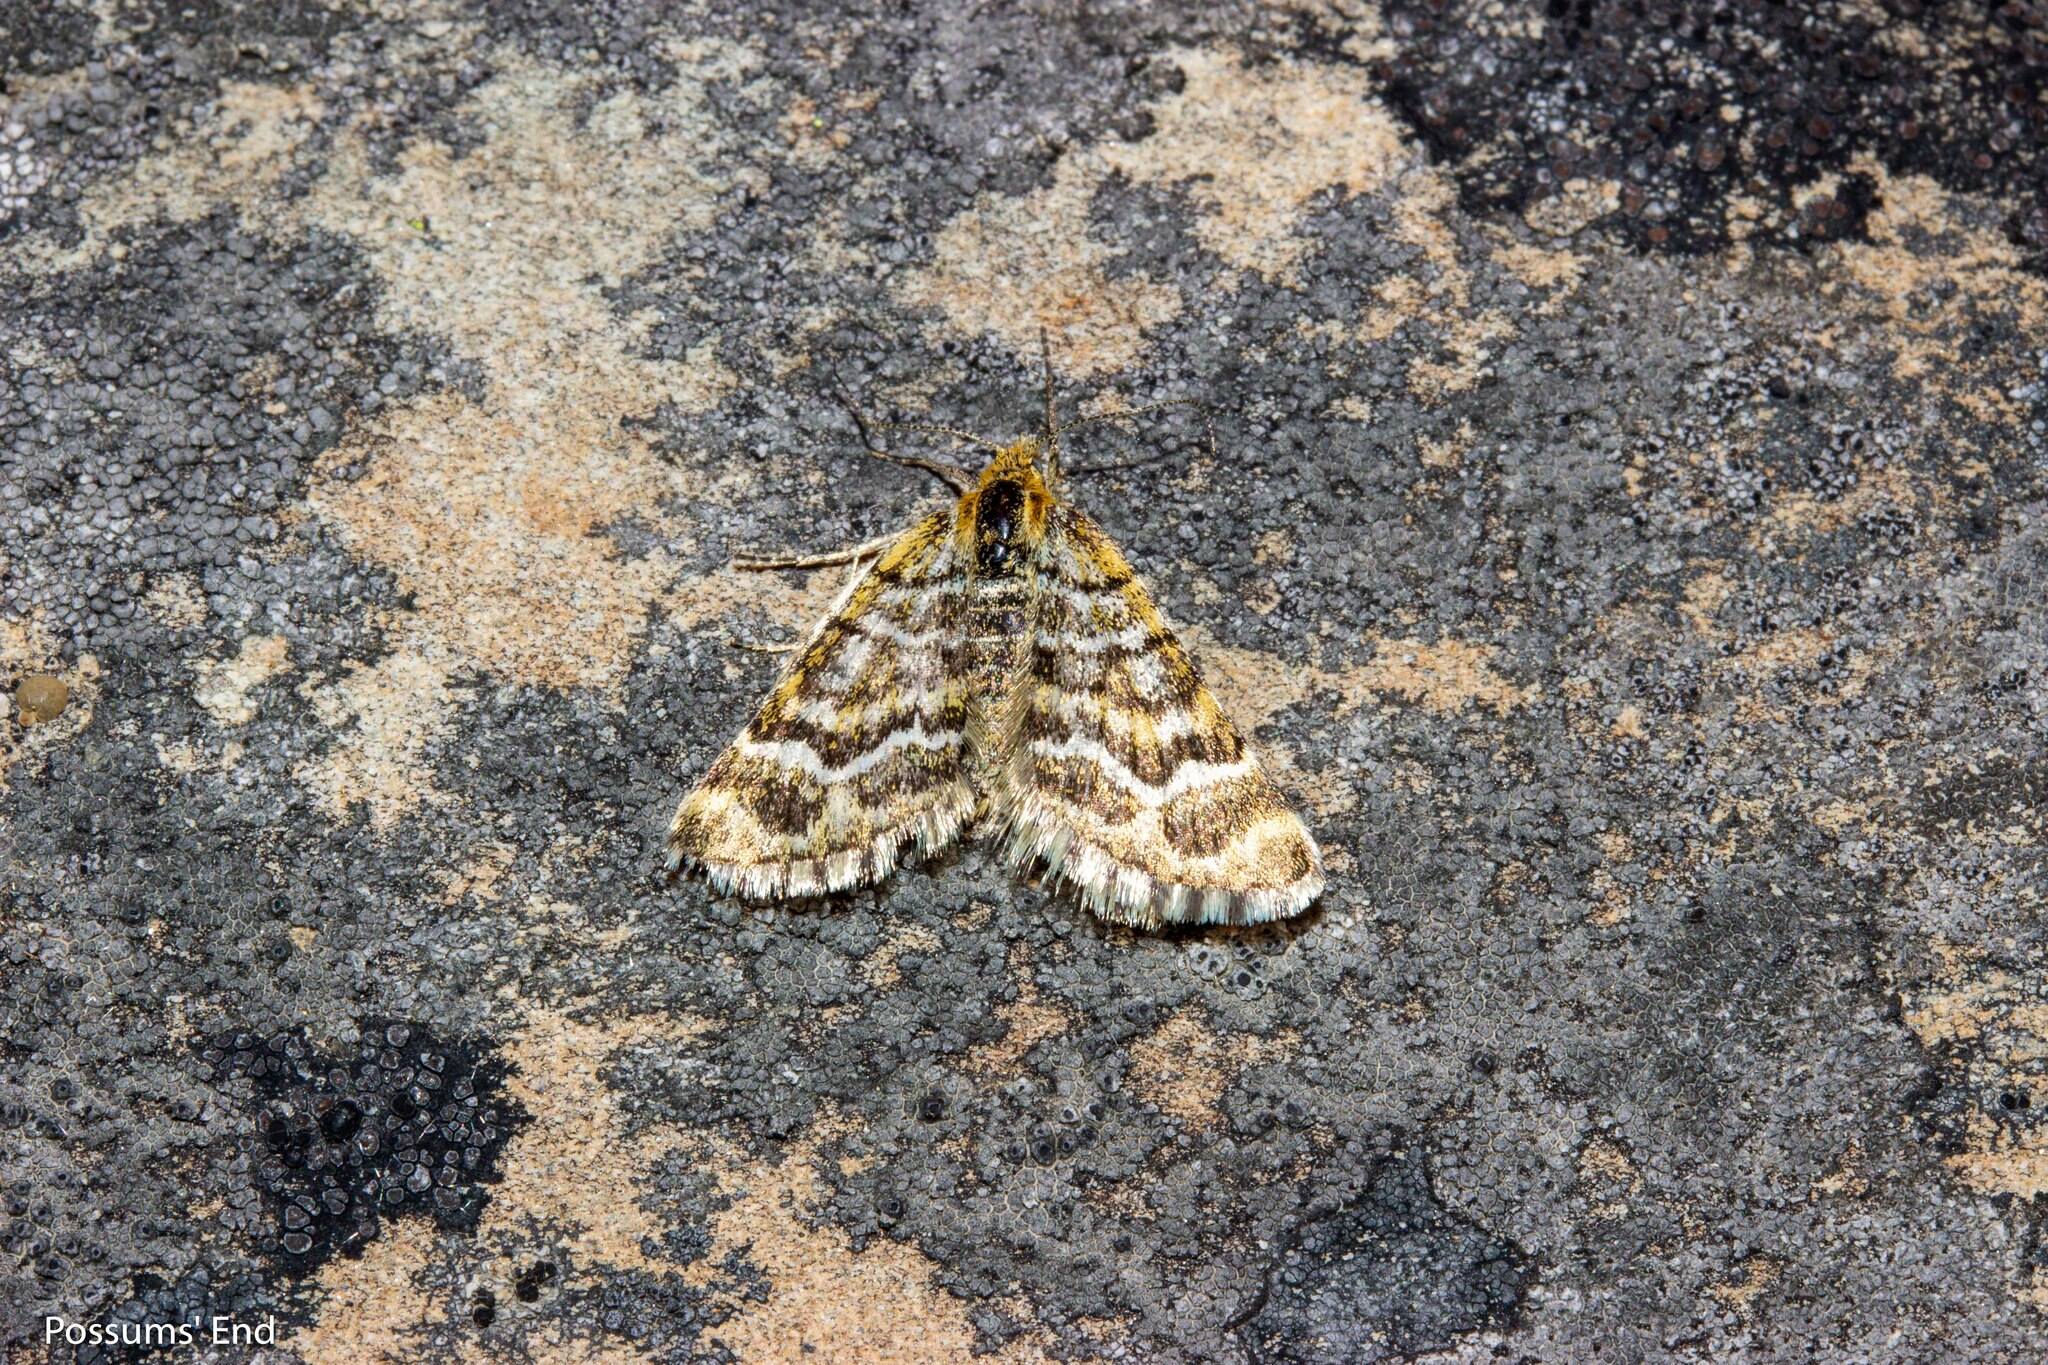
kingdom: Animalia
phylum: Arthropoda
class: Insecta
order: Lepidoptera
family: Geometridae
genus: Notoreas
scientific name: Notoreas paradelpha
